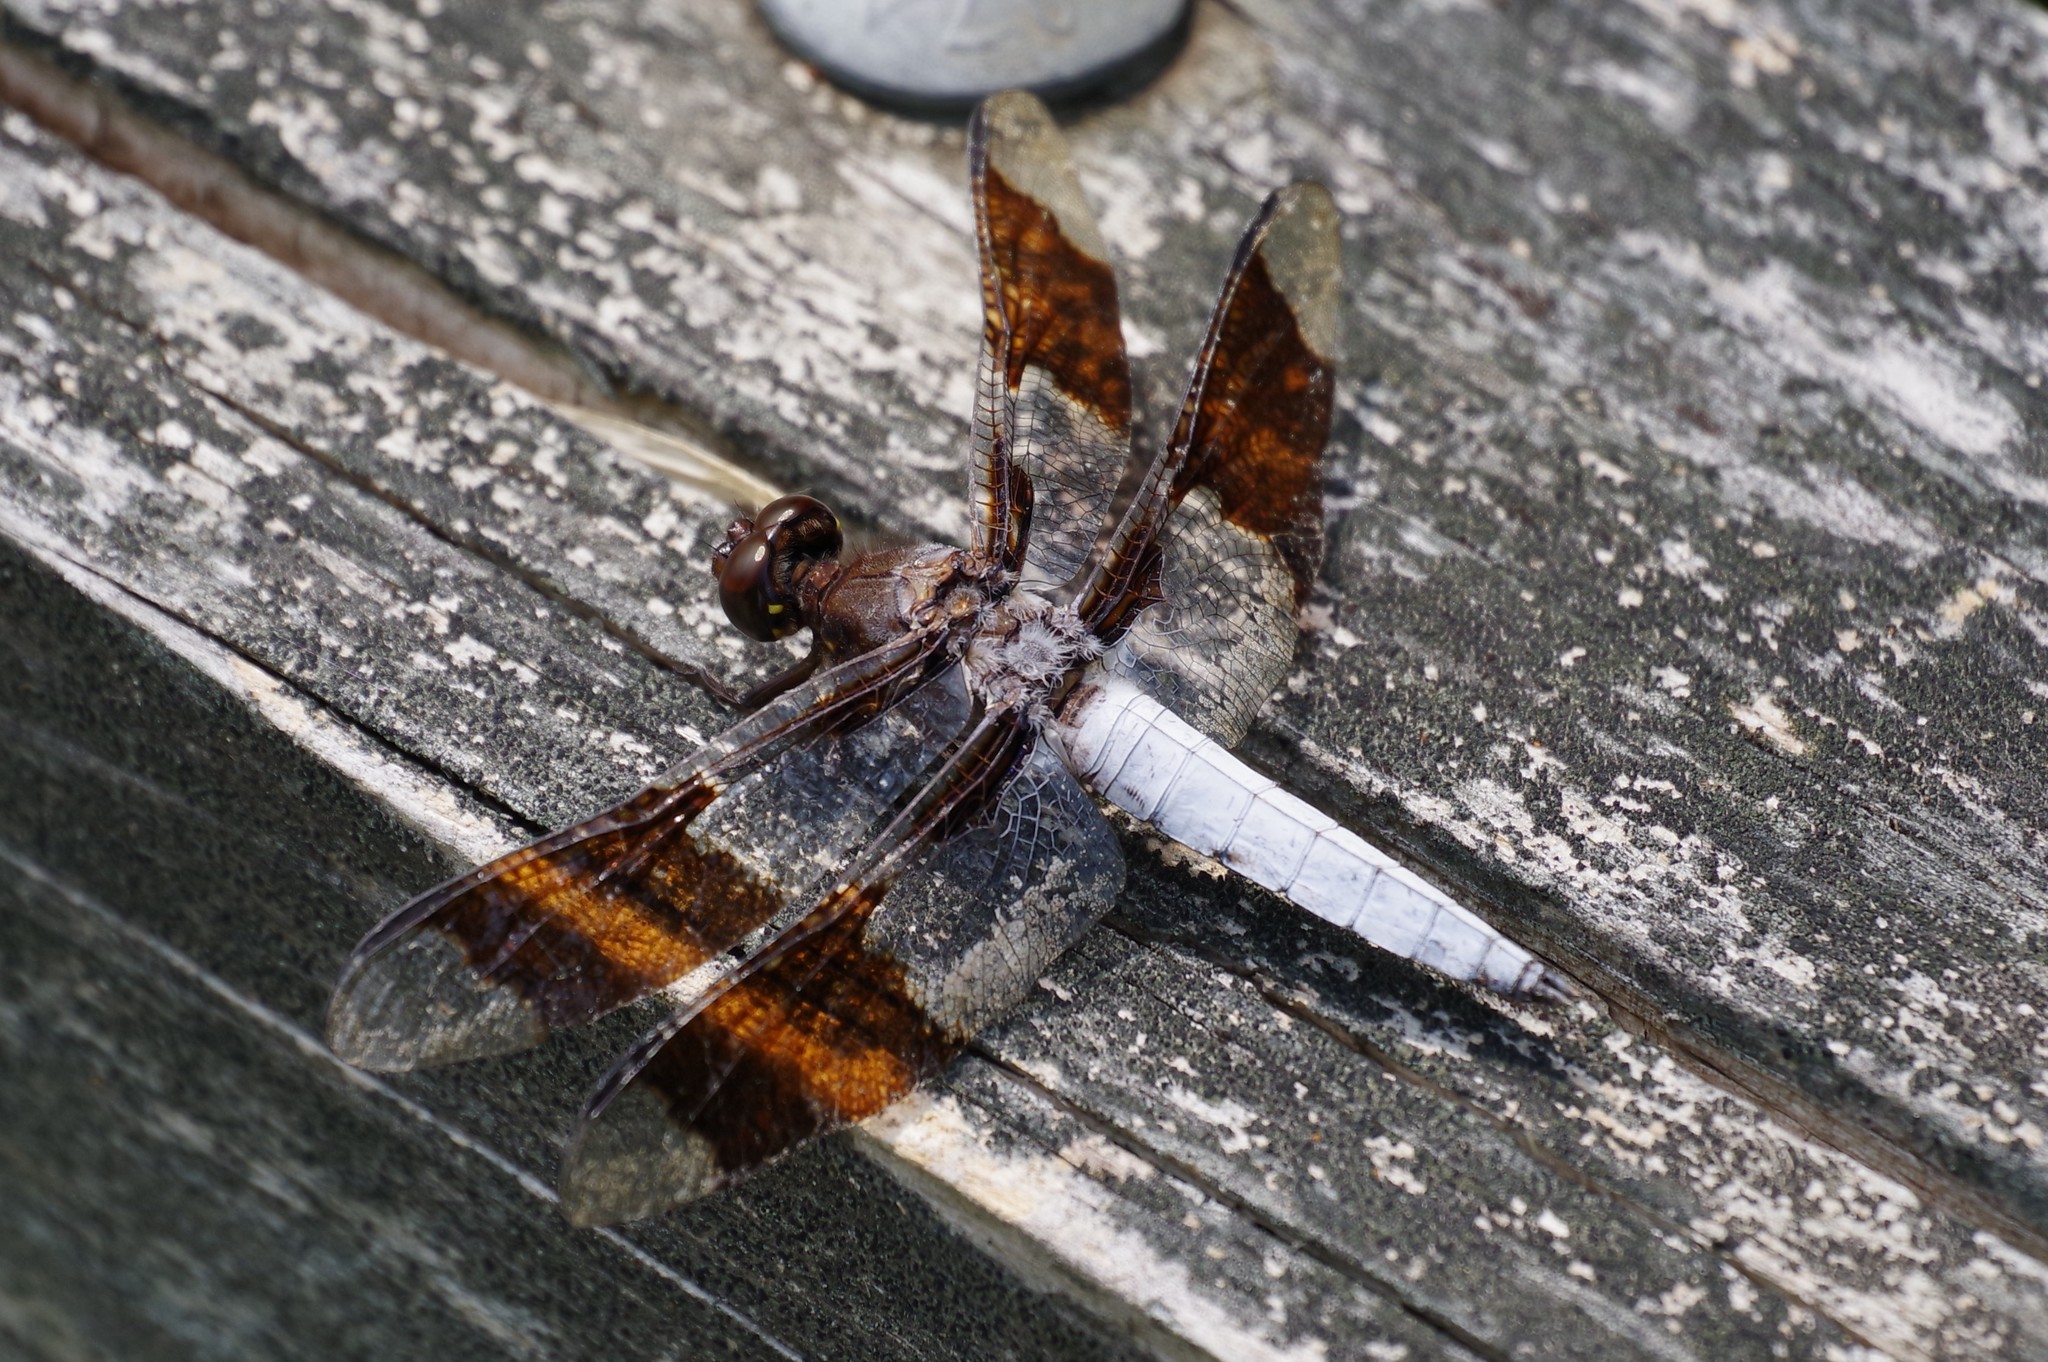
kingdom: Animalia
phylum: Arthropoda
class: Insecta
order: Odonata
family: Libellulidae
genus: Plathemis
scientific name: Plathemis lydia
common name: Common whitetail
